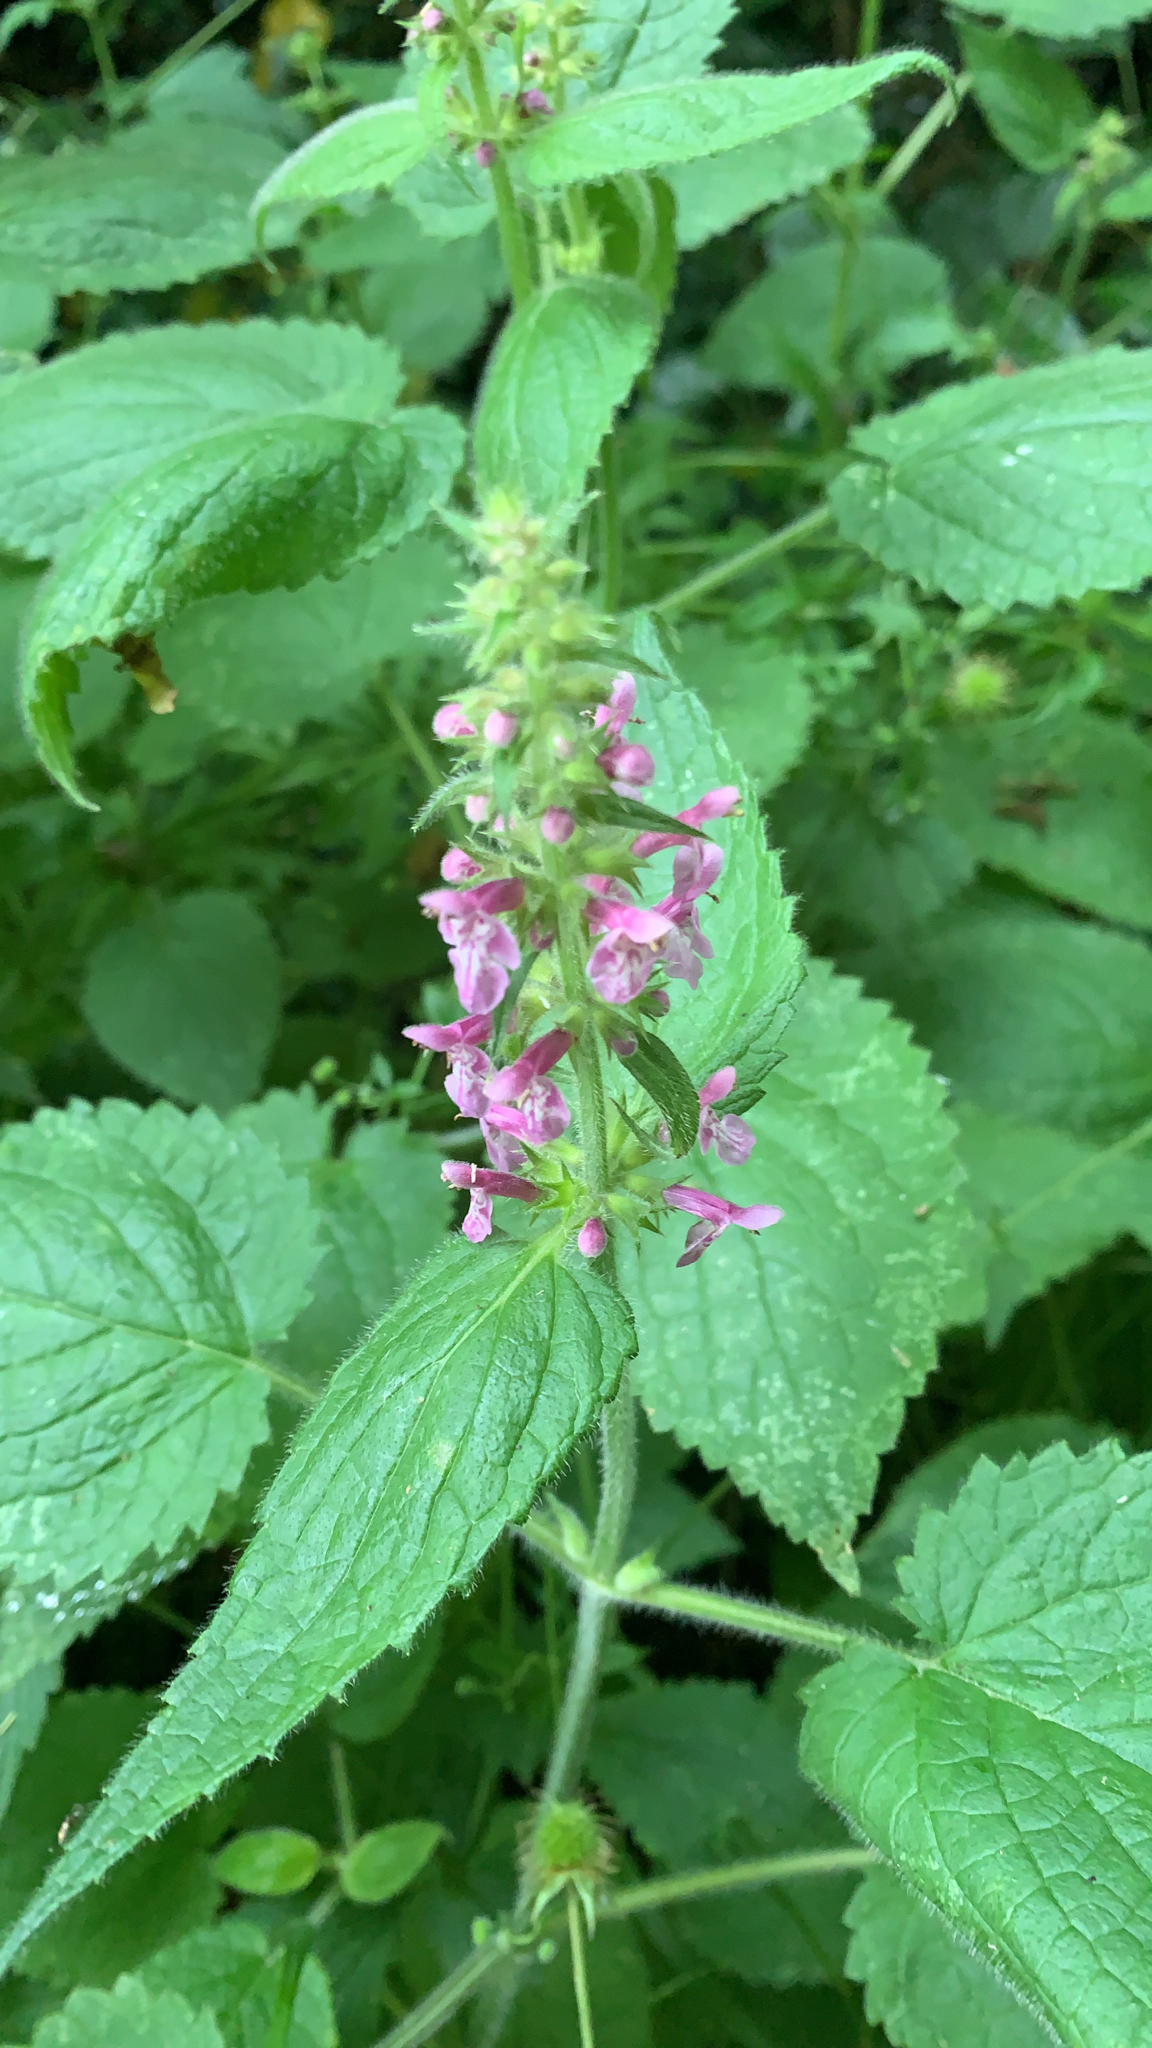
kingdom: Plantae
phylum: Tracheophyta
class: Magnoliopsida
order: Lamiales
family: Lamiaceae
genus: Stachys
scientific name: Stachys sylvatica
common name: Hedge woundwort
